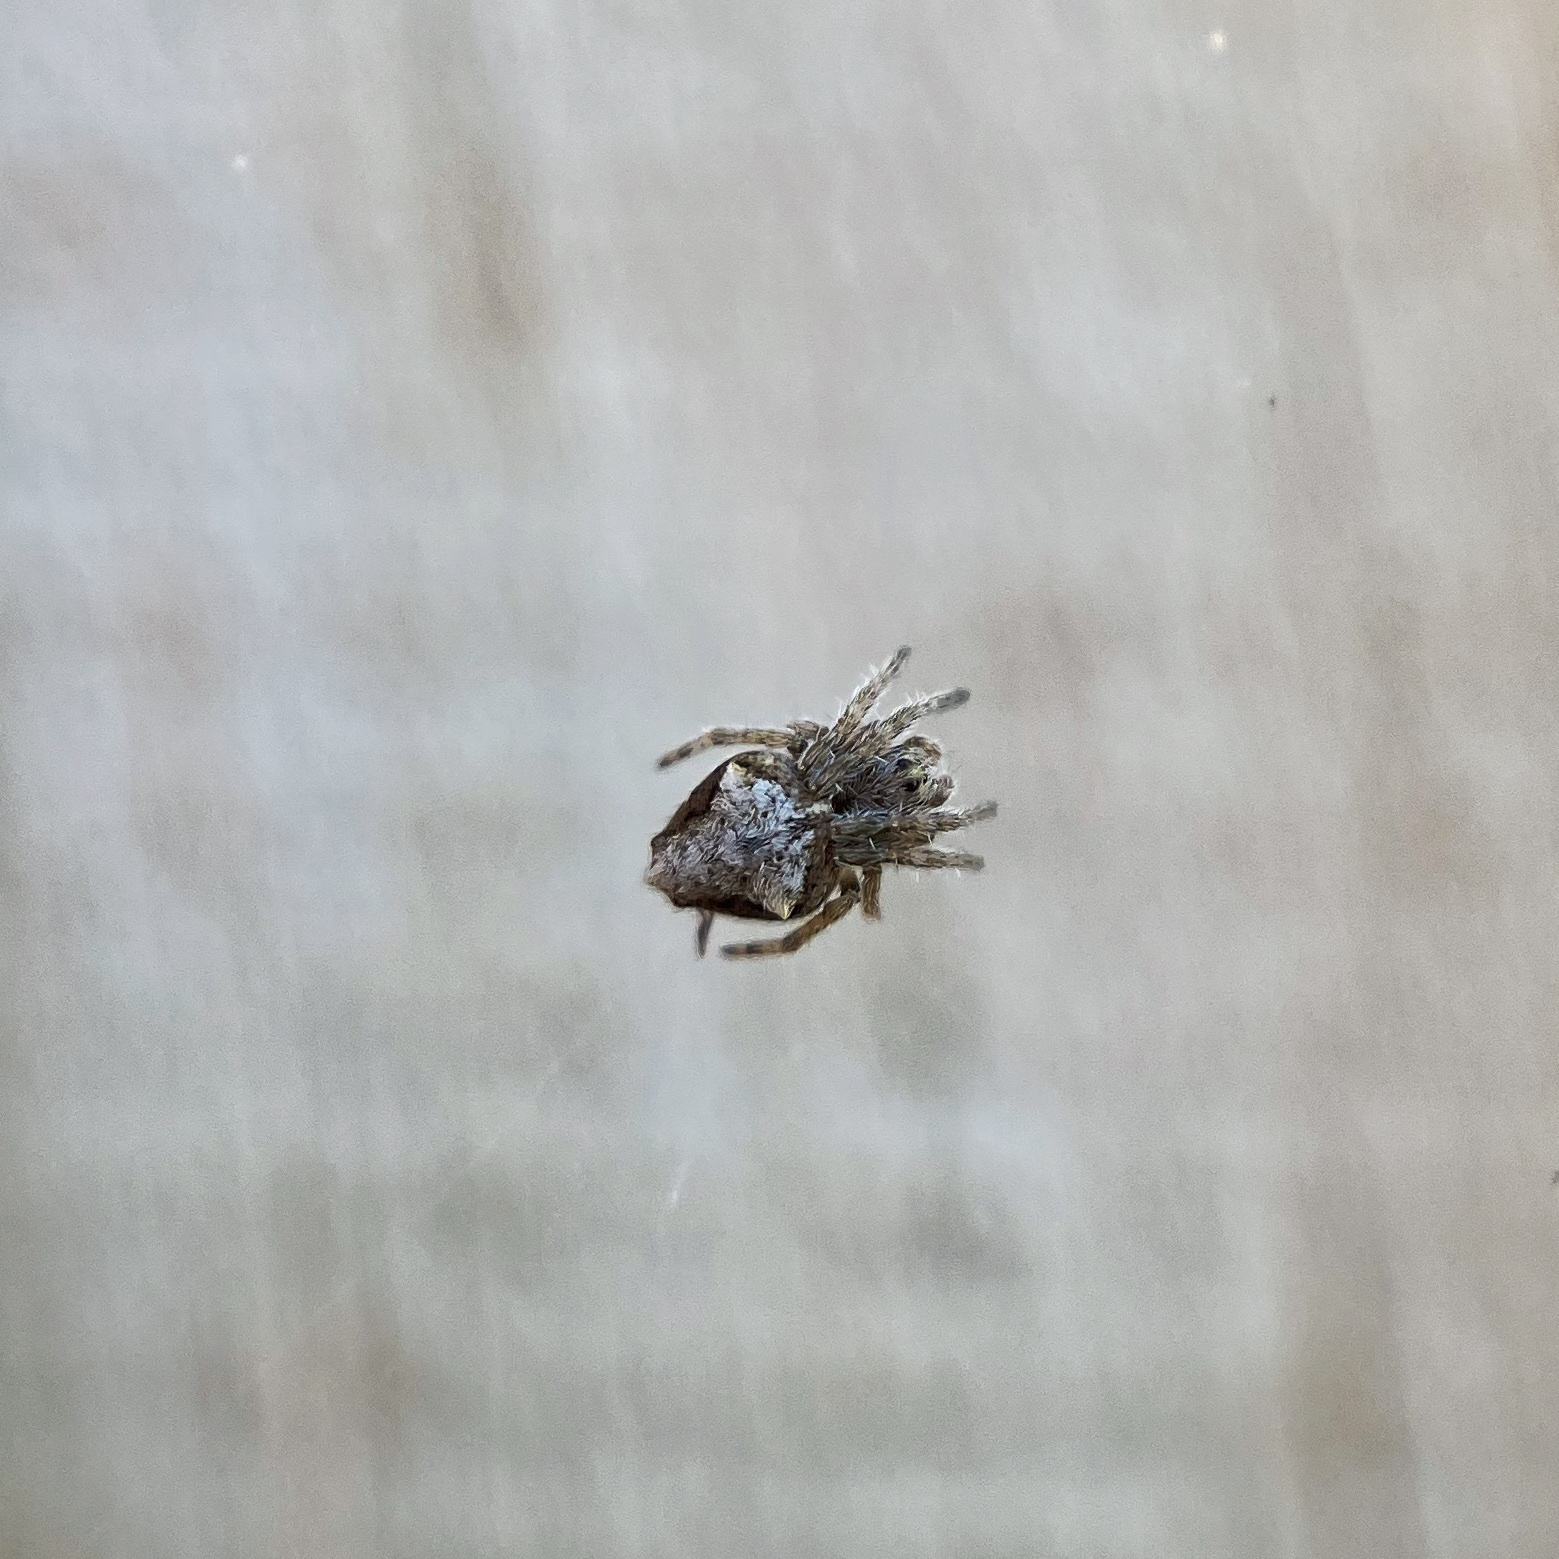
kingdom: Animalia
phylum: Arthropoda
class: Arachnida
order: Araneae
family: Araneidae
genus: Eriophora
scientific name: Eriophora pustulosa
